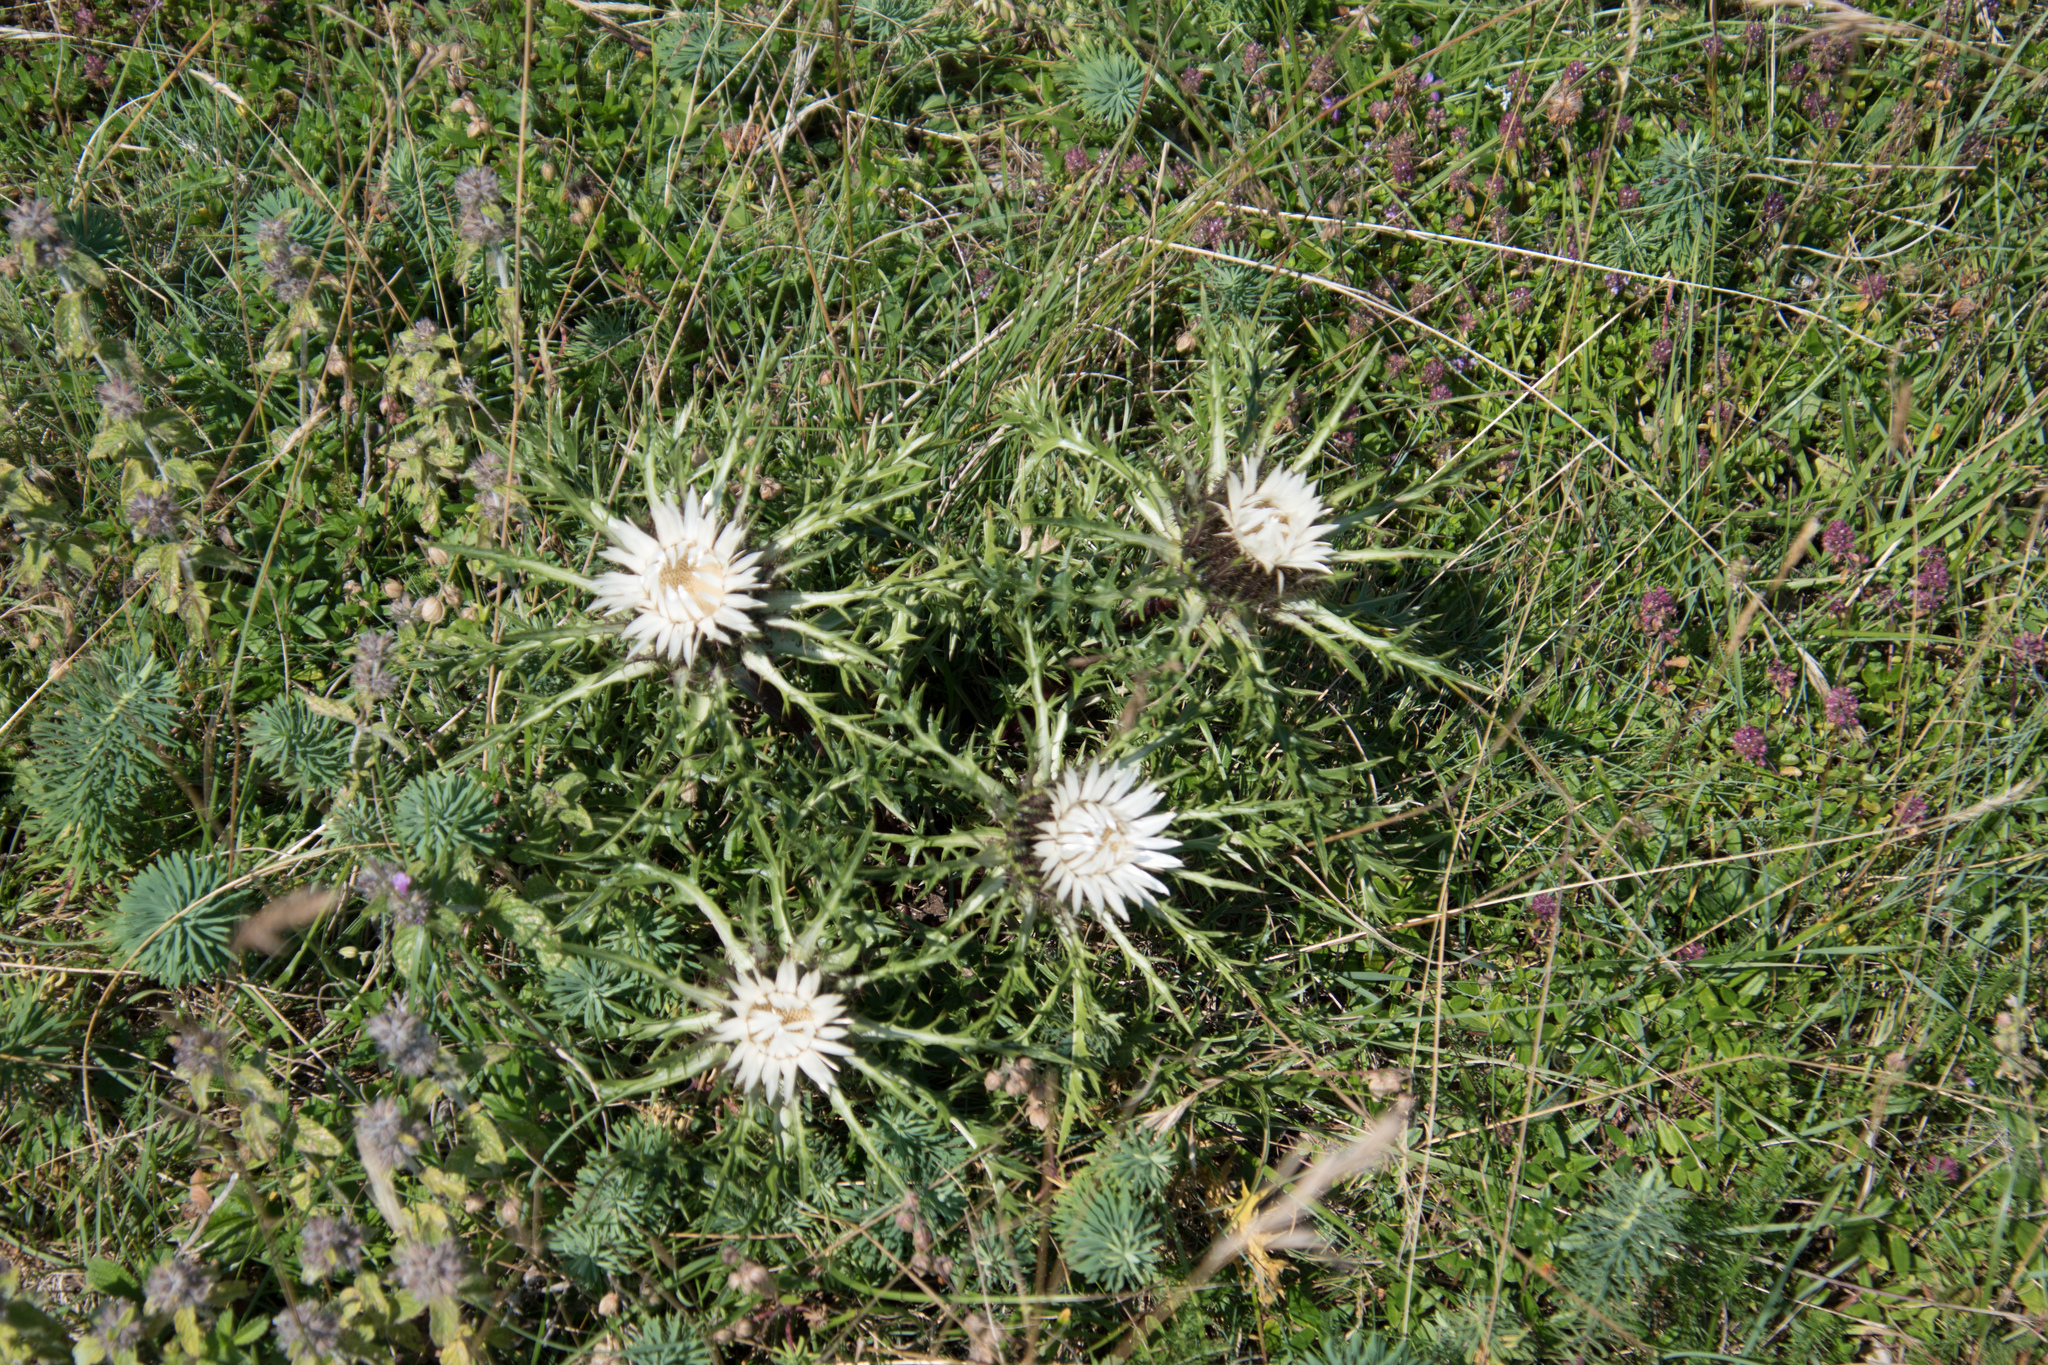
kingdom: Plantae
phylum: Tracheophyta
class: Magnoliopsida
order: Asterales
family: Asteraceae
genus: Carlina
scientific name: Carlina acaulis
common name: Stemless carline thistle
